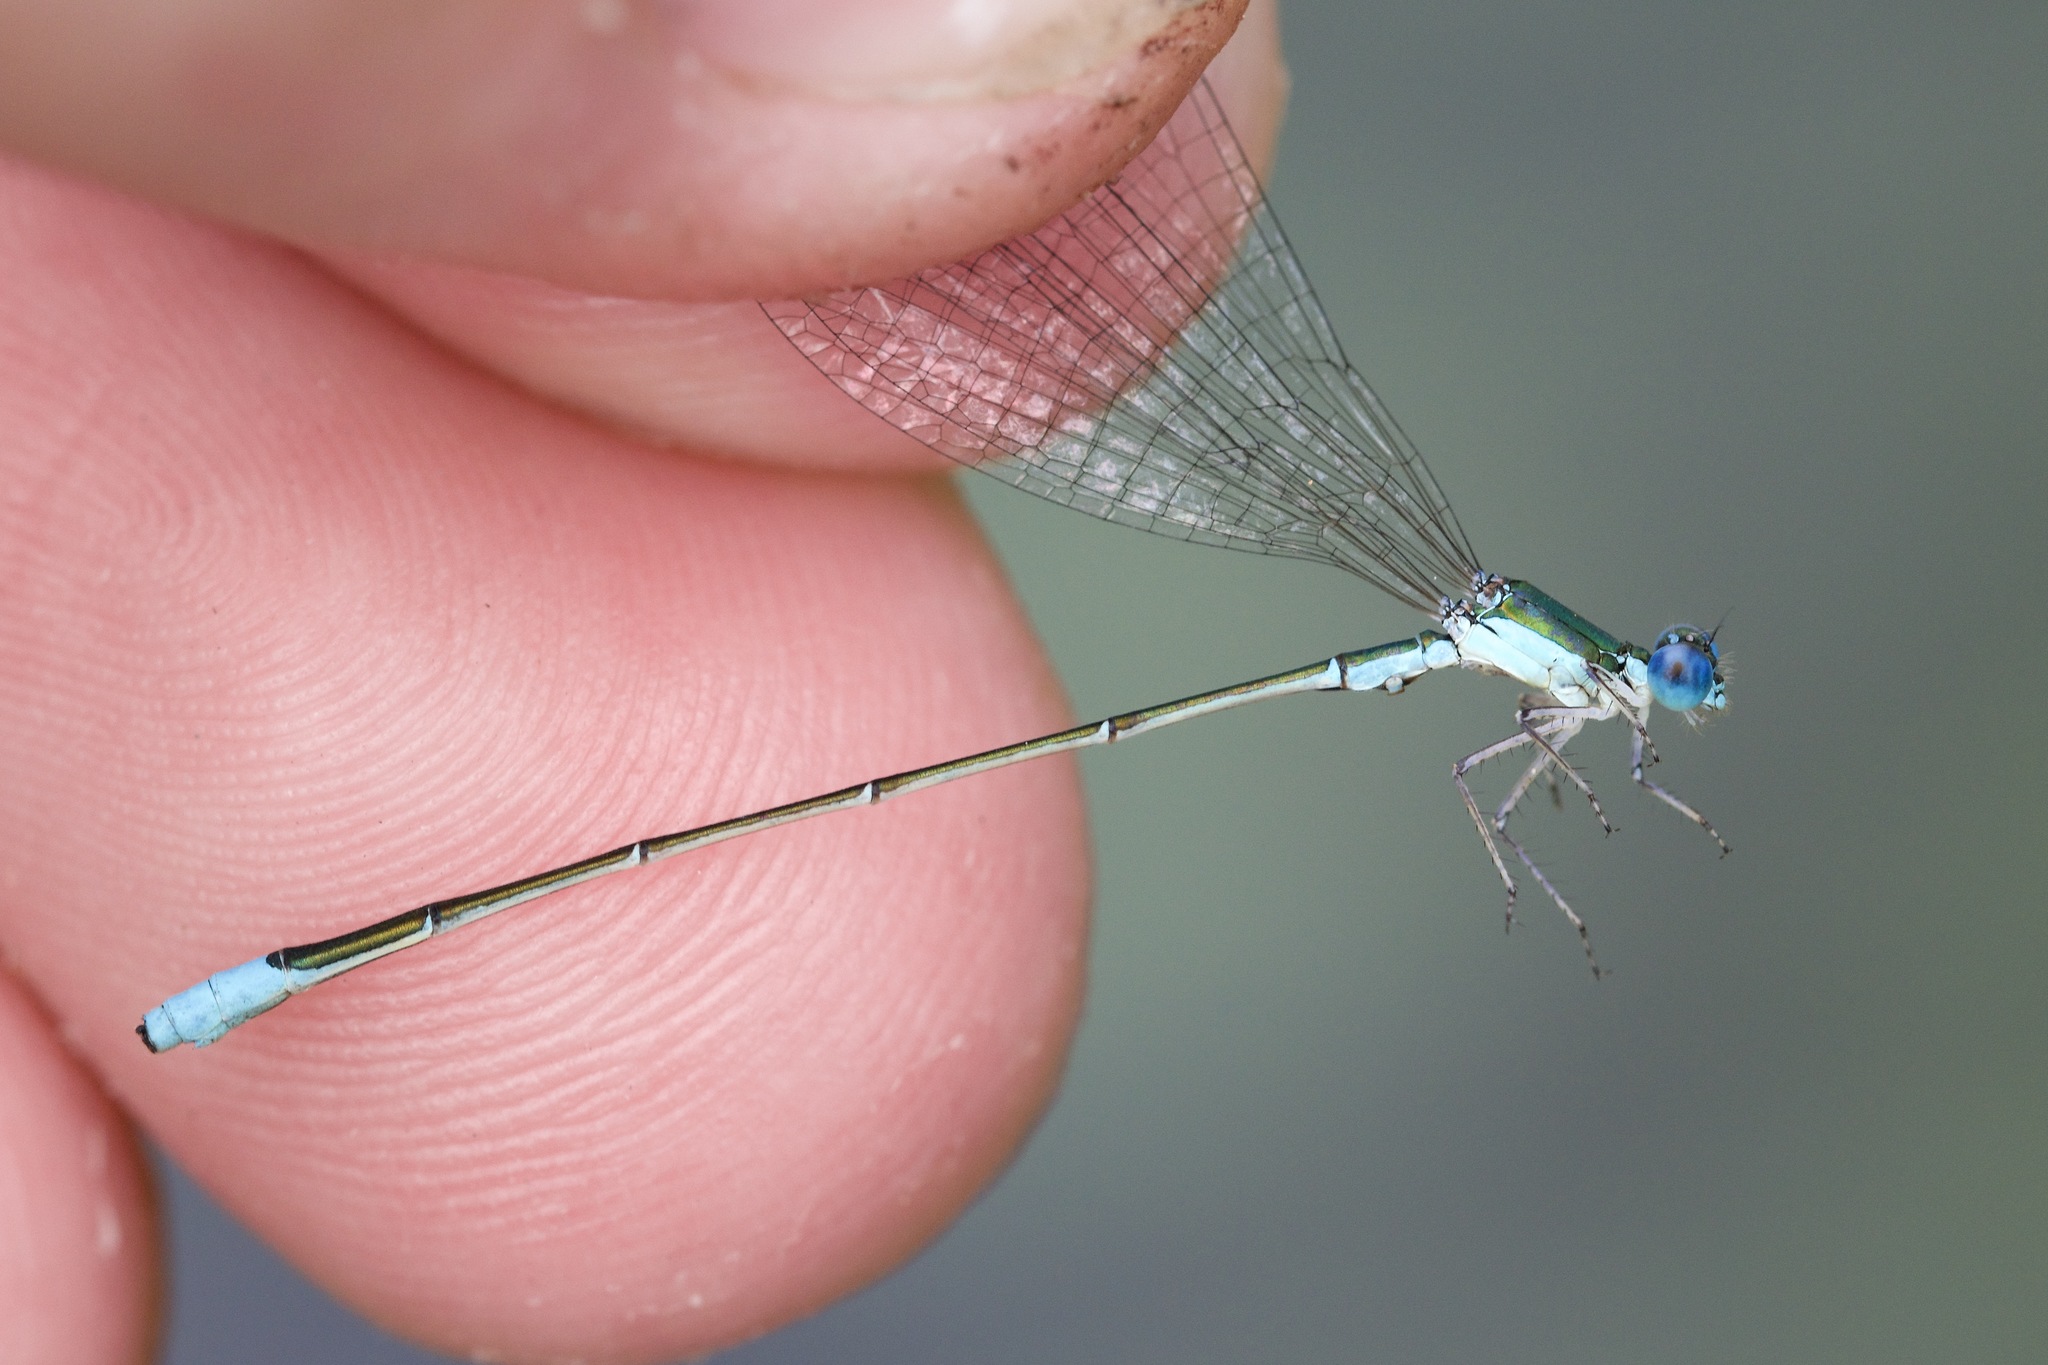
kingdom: Animalia
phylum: Arthropoda
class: Insecta
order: Odonata
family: Coenagrionidae
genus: Nehalennia
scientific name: Nehalennia gracilis
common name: Sphagnum sprite
